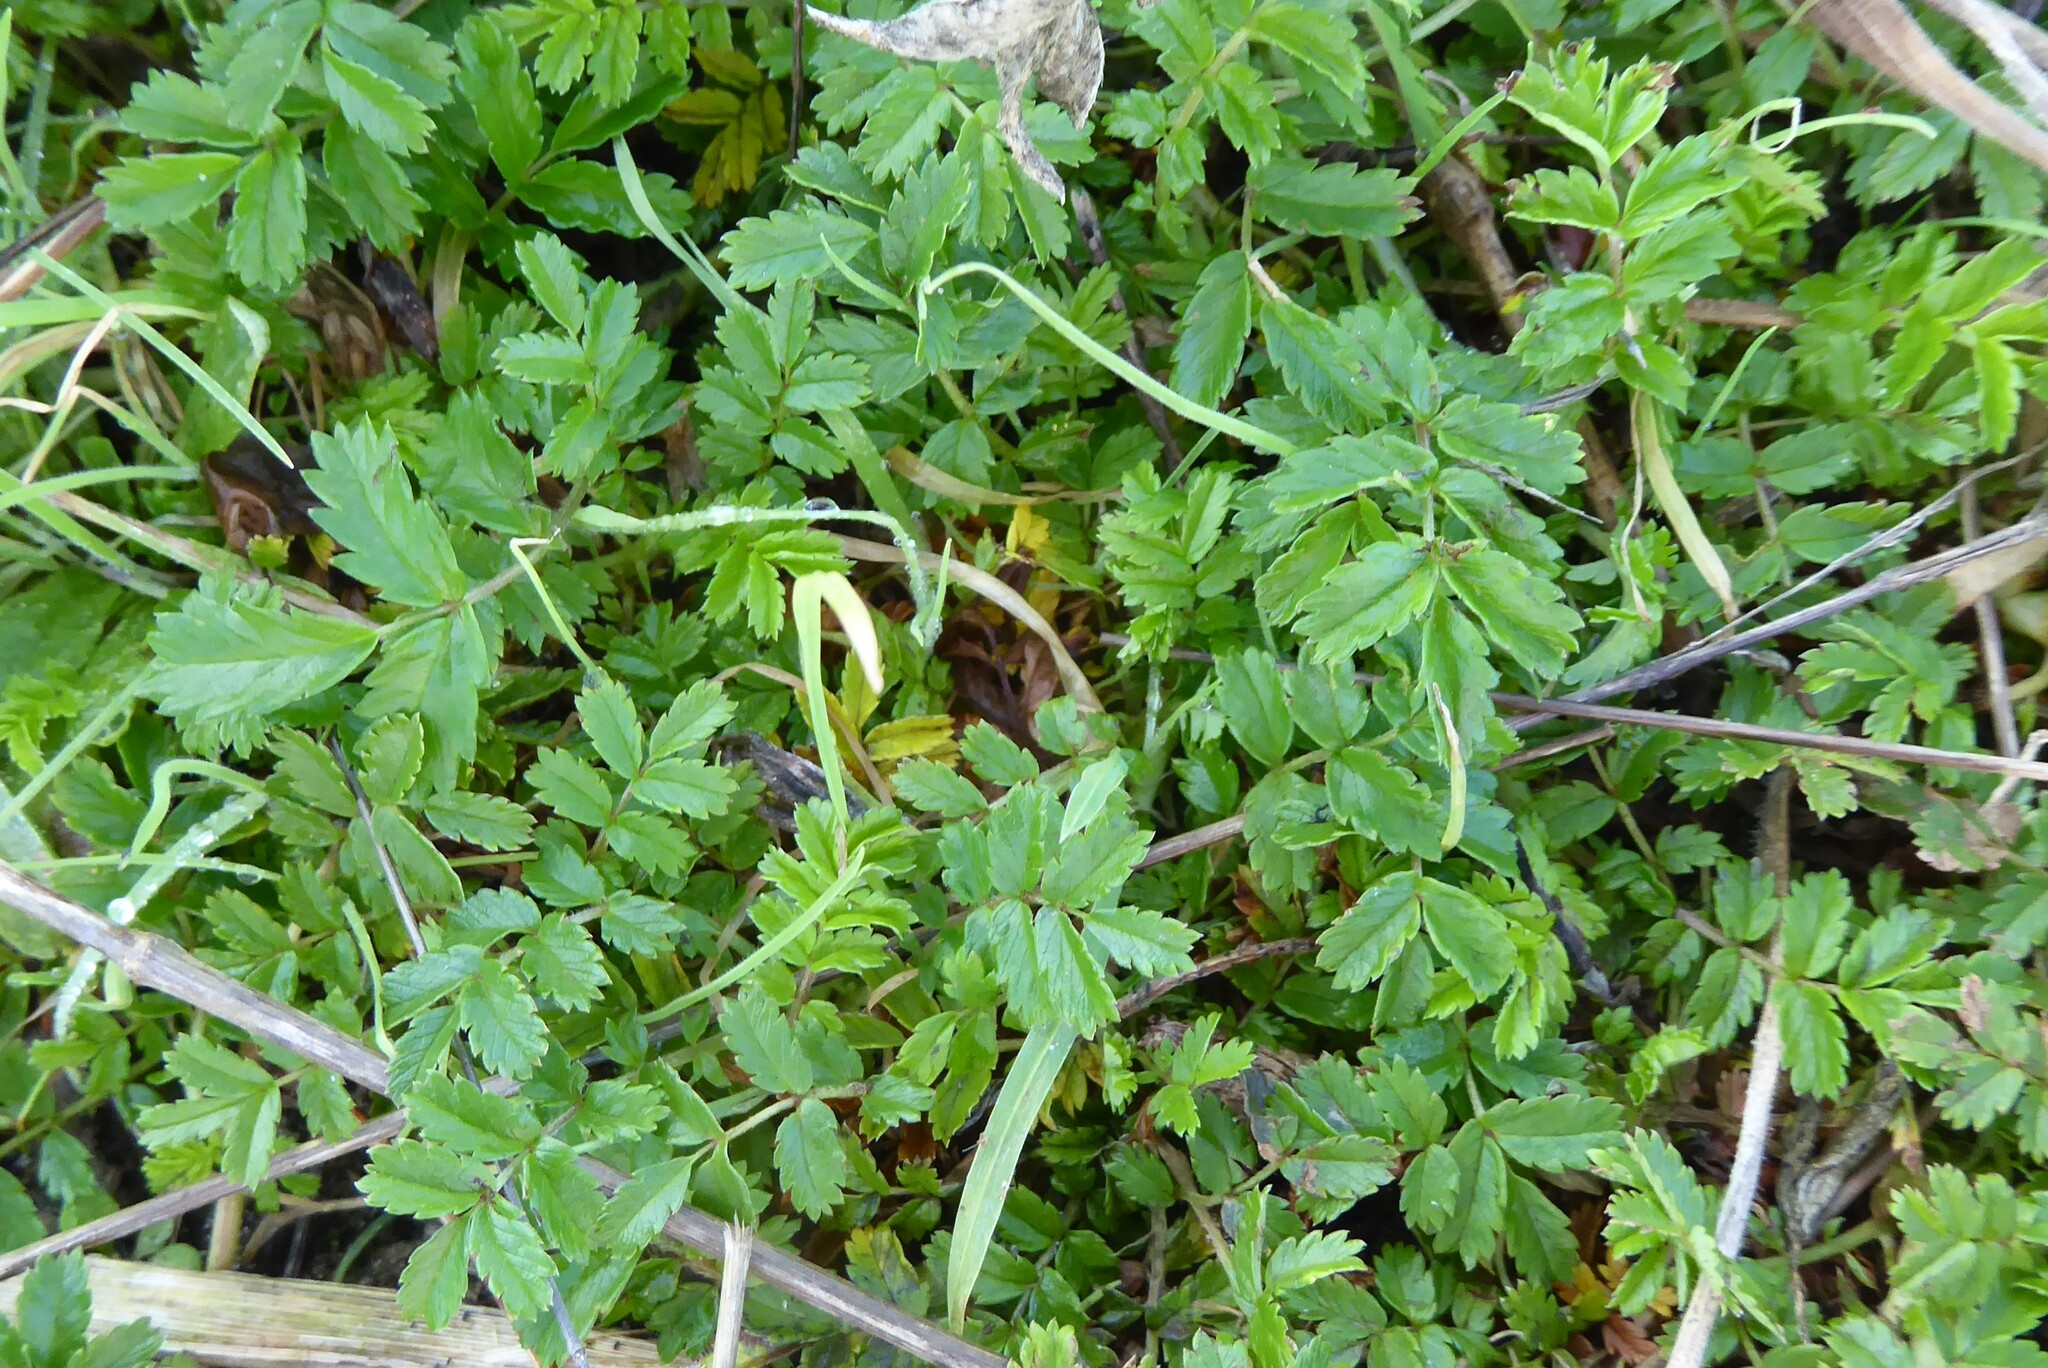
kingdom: Plantae
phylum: Tracheophyta
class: Magnoliopsida
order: Rosales
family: Rosaceae
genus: Acaena
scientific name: Acaena anserinifolia
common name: Bronze pirri-pirri-bur
